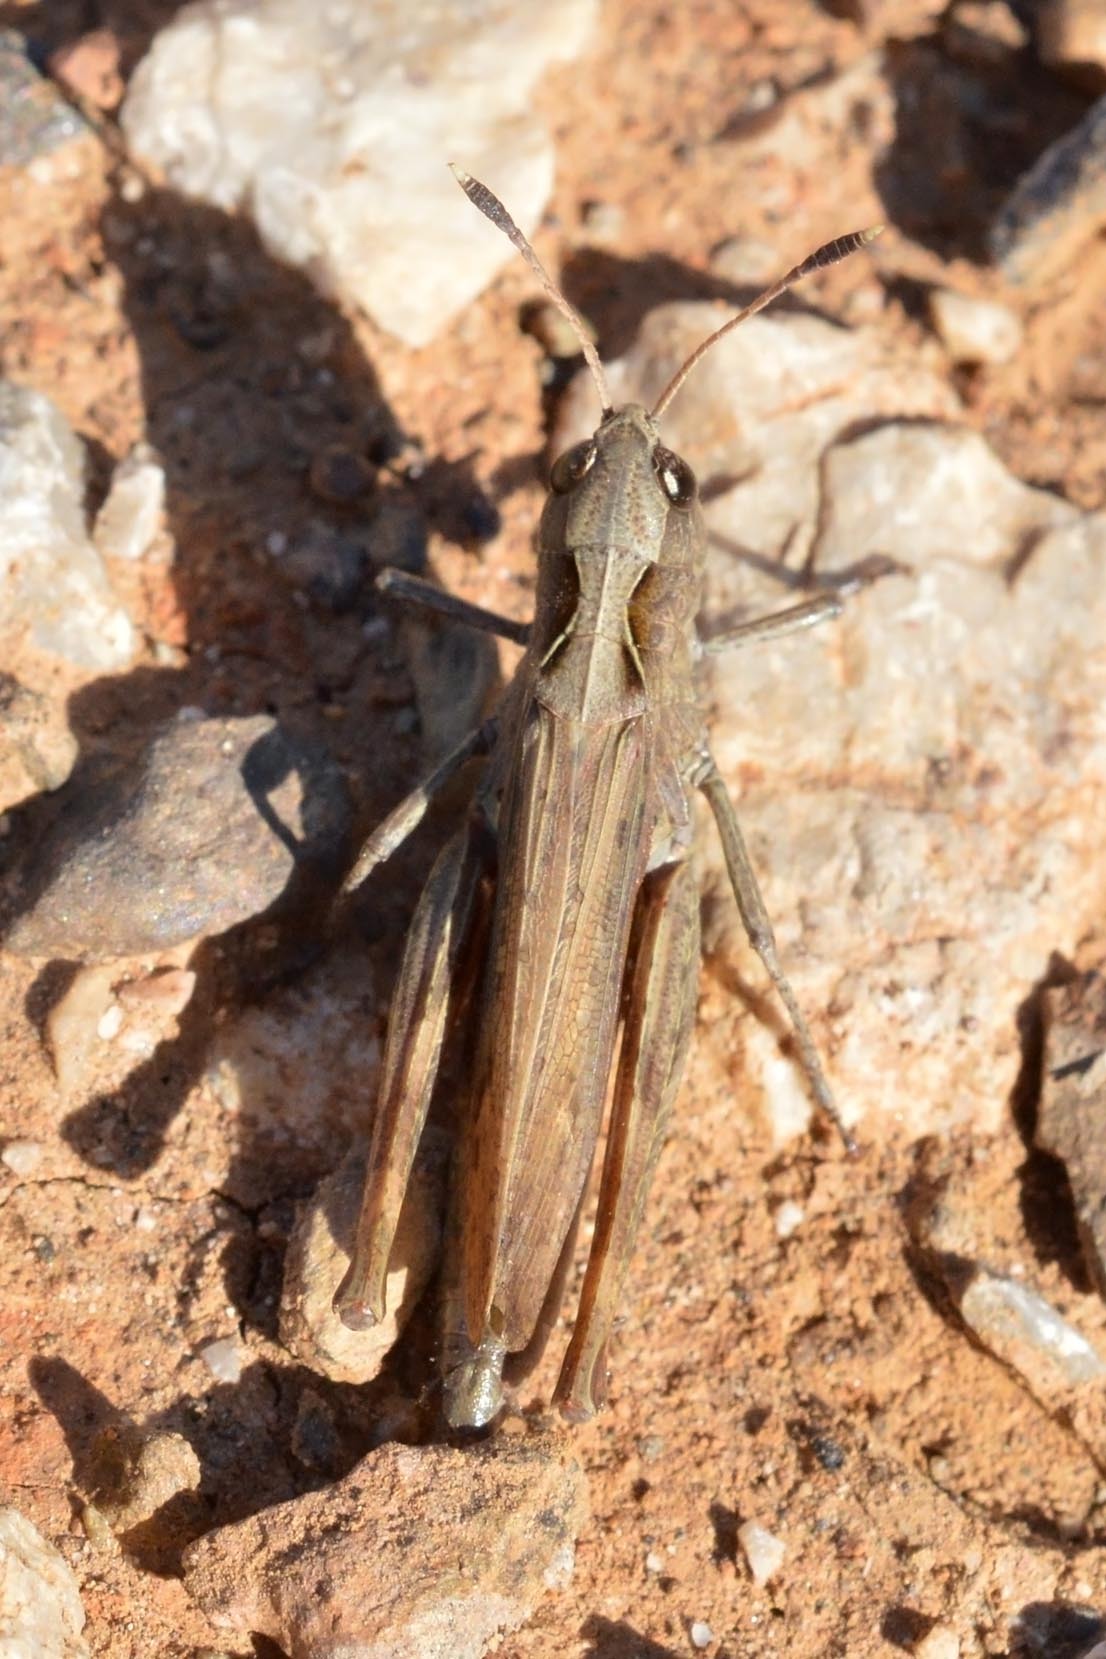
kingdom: Animalia
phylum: Arthropoda
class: Insecta
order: Orthoptera
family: Acrididae
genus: Gomphocerippus
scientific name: Gomphocerippus rufus
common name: Rufous grasshopper
